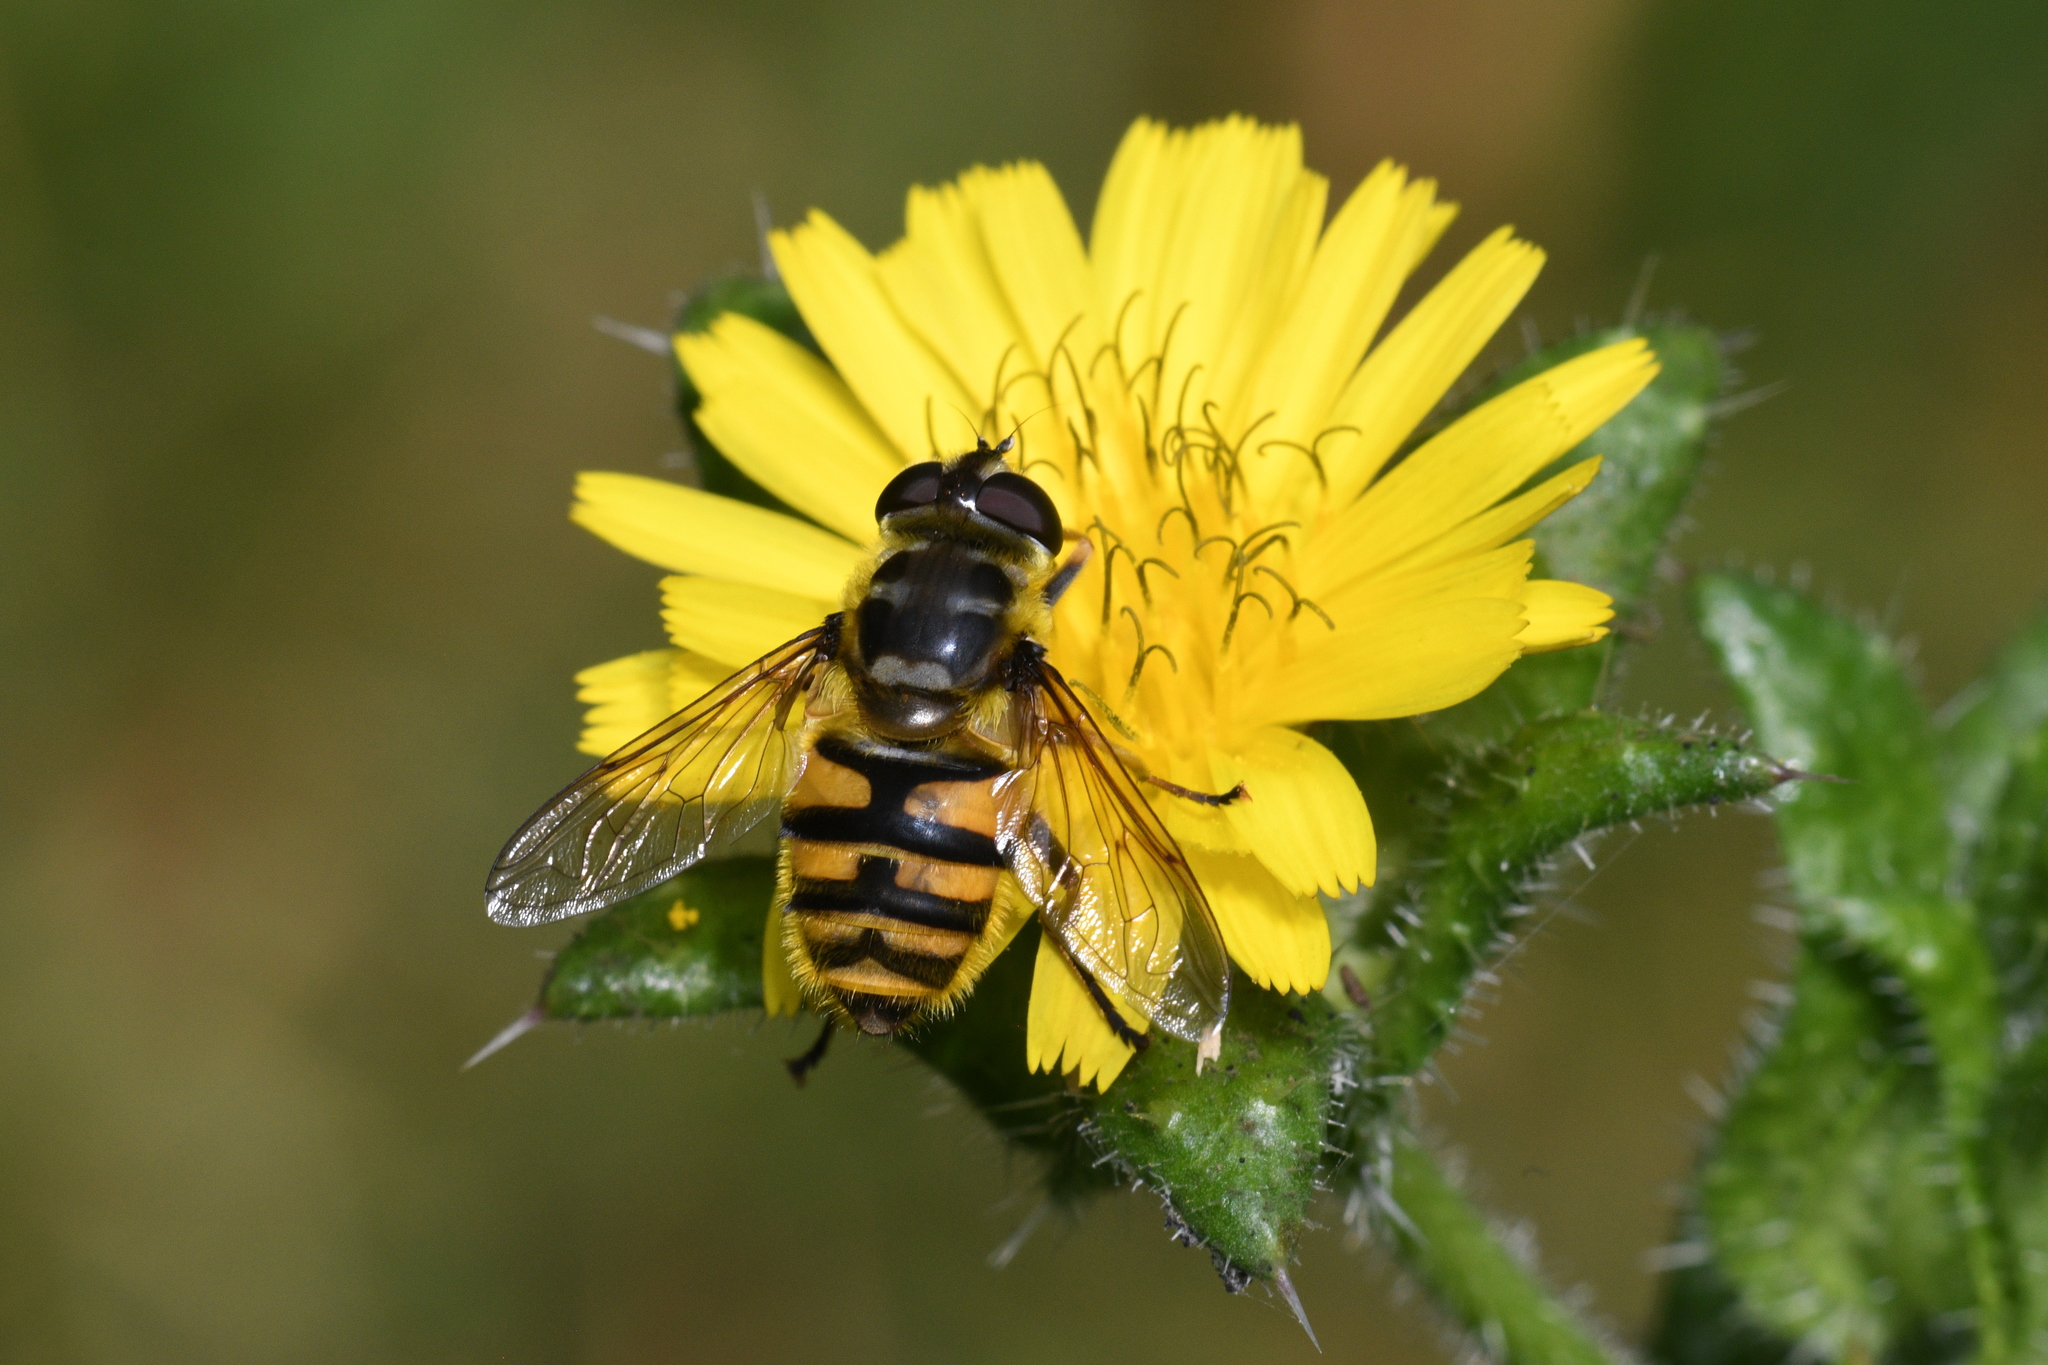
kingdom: Animalia
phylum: Arthropoda
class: Insecta
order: Diptera
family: Syrphidae
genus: Myathropa
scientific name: Myathropa florea
